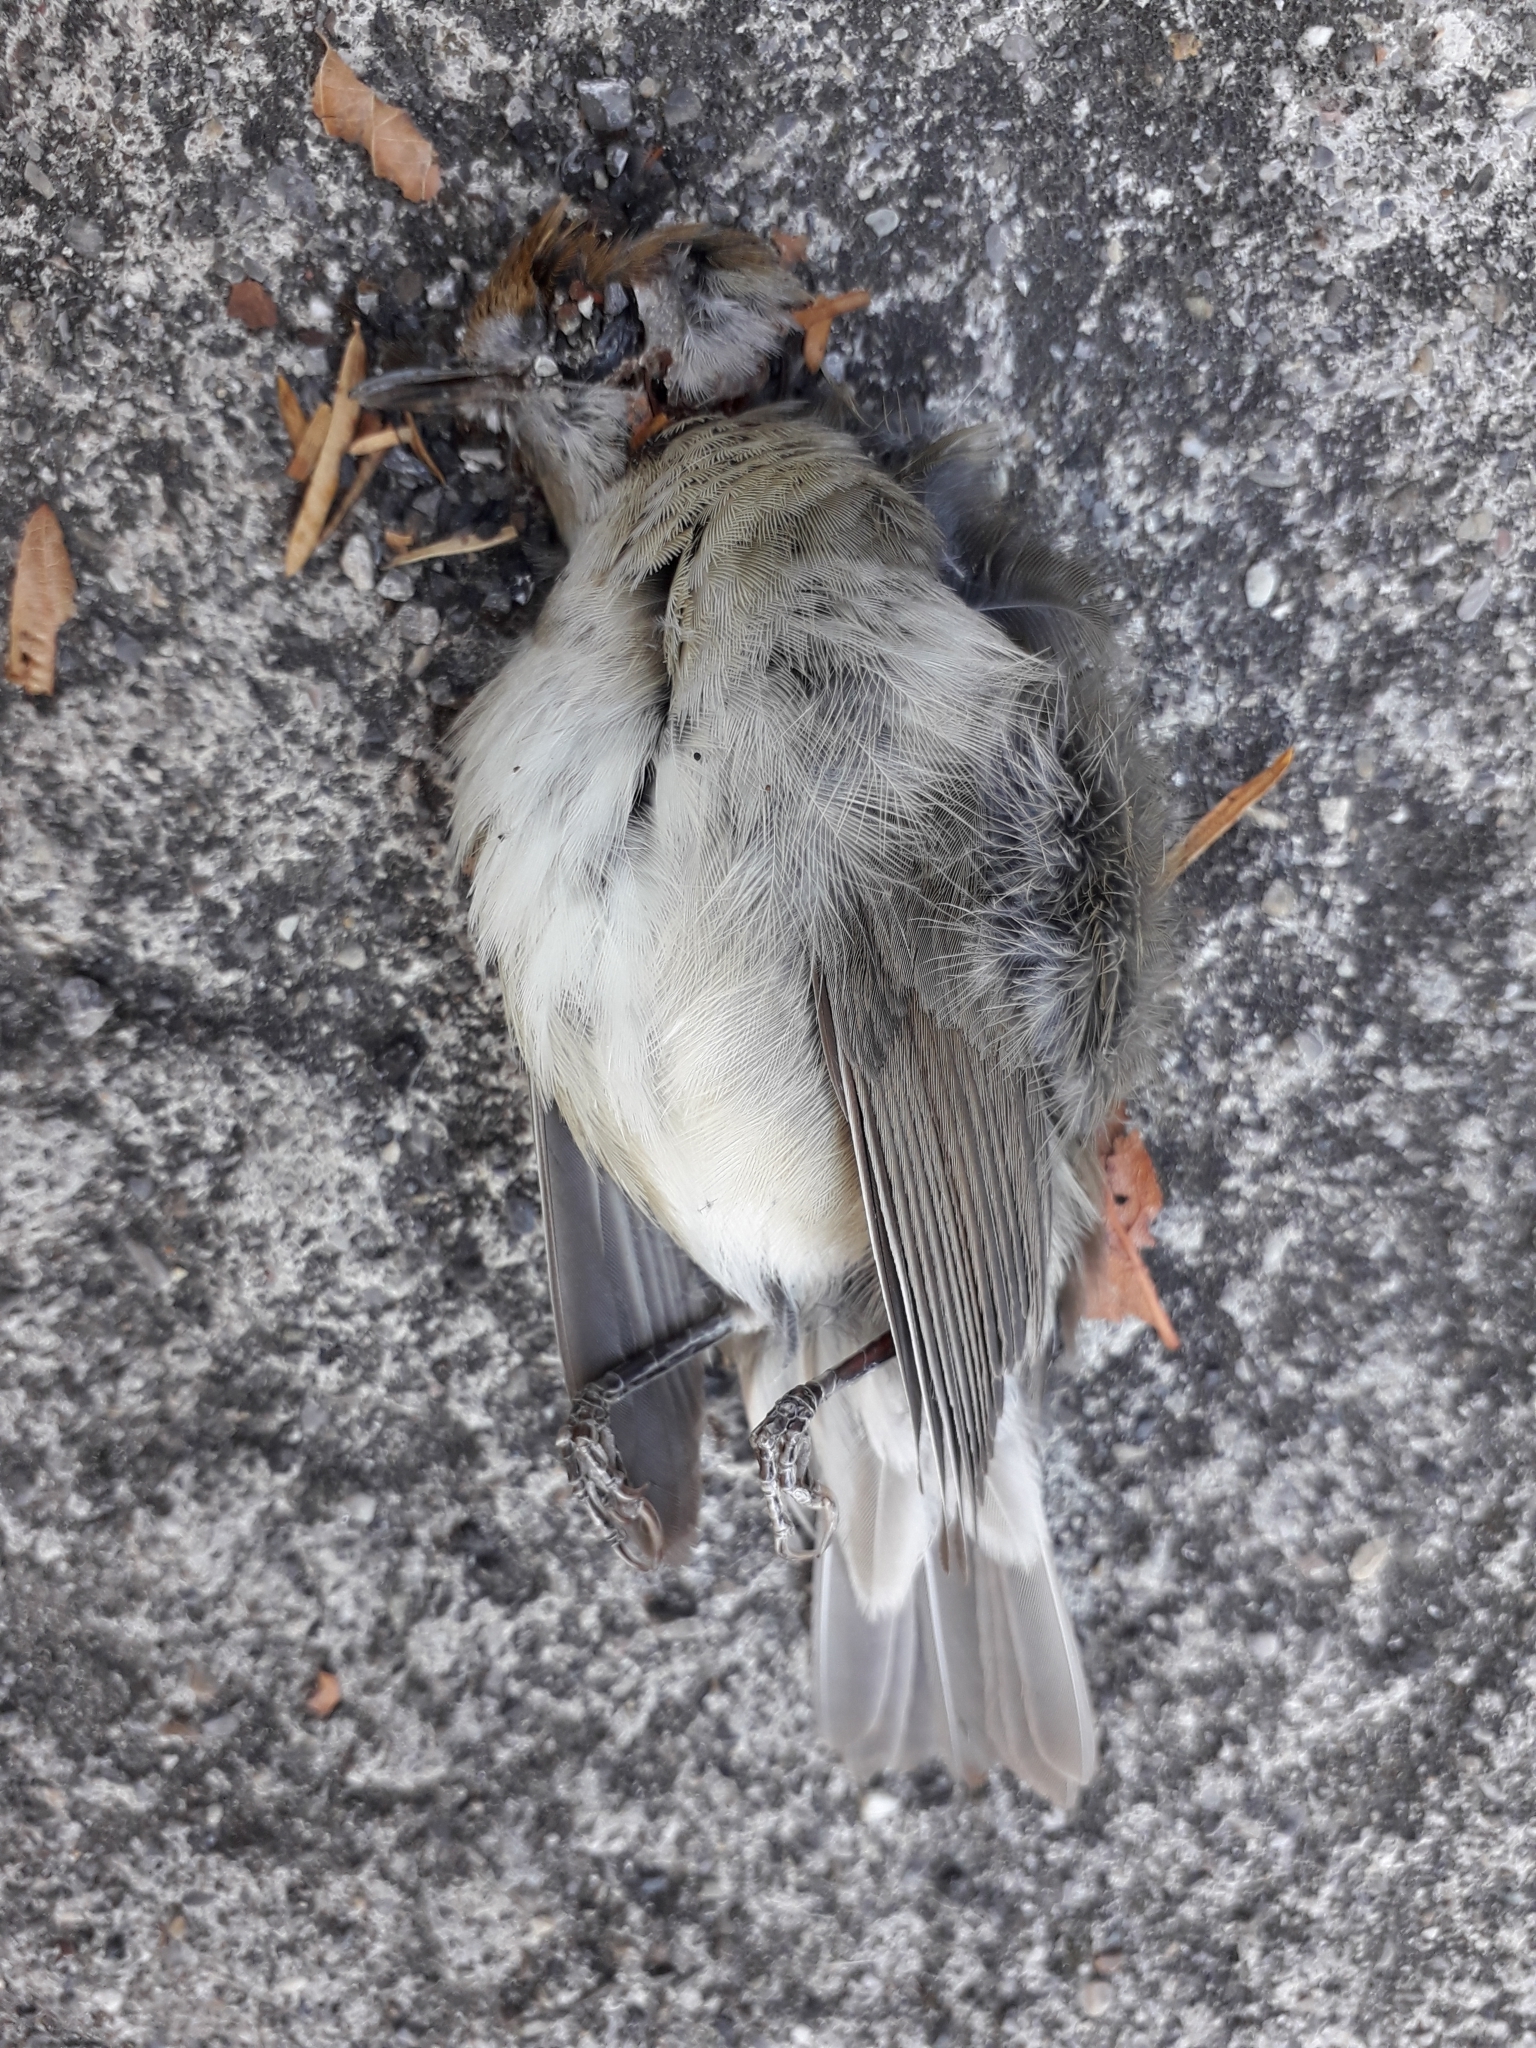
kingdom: Animalia
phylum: Chordata
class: Aves
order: Passeriformes
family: Sylviidae
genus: Sylvia
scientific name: Sylvia atricapilla
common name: Eurasian blackcap
